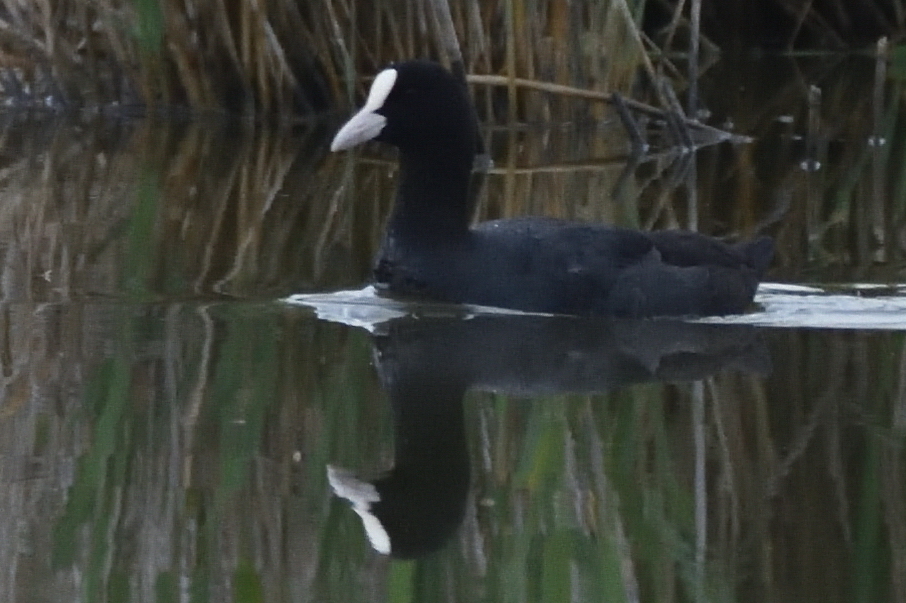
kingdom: Animalia
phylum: Chordata
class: Aves
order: Gruiformes
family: Rallidae
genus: Fulica
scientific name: Fulica atra
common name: Eurasian coot
